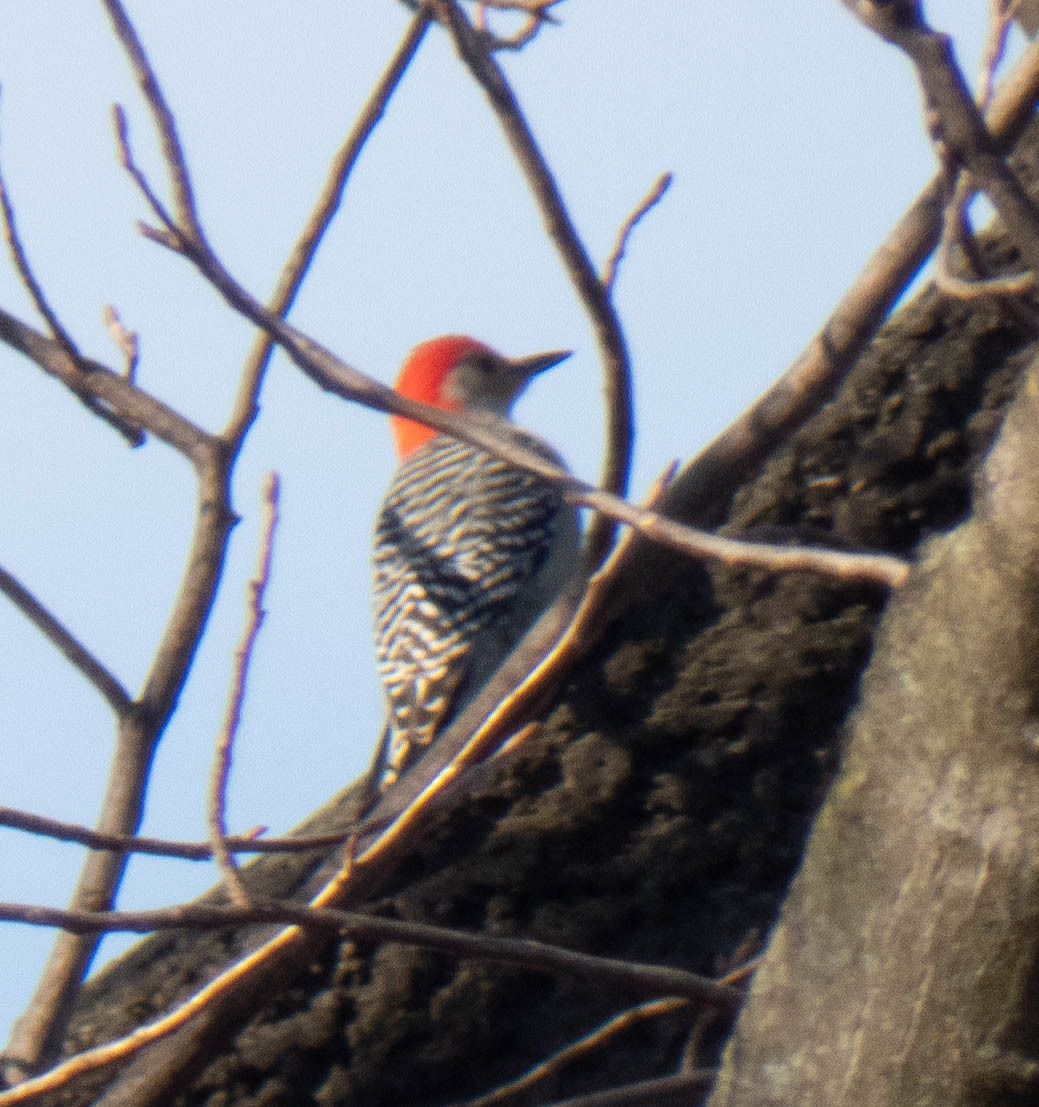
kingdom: Animalia
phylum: Chordata
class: Aves
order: Piciformes
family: Picidae
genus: Melanerpes
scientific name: Melanerpes carolinus
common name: Red-bellied woodpecker
